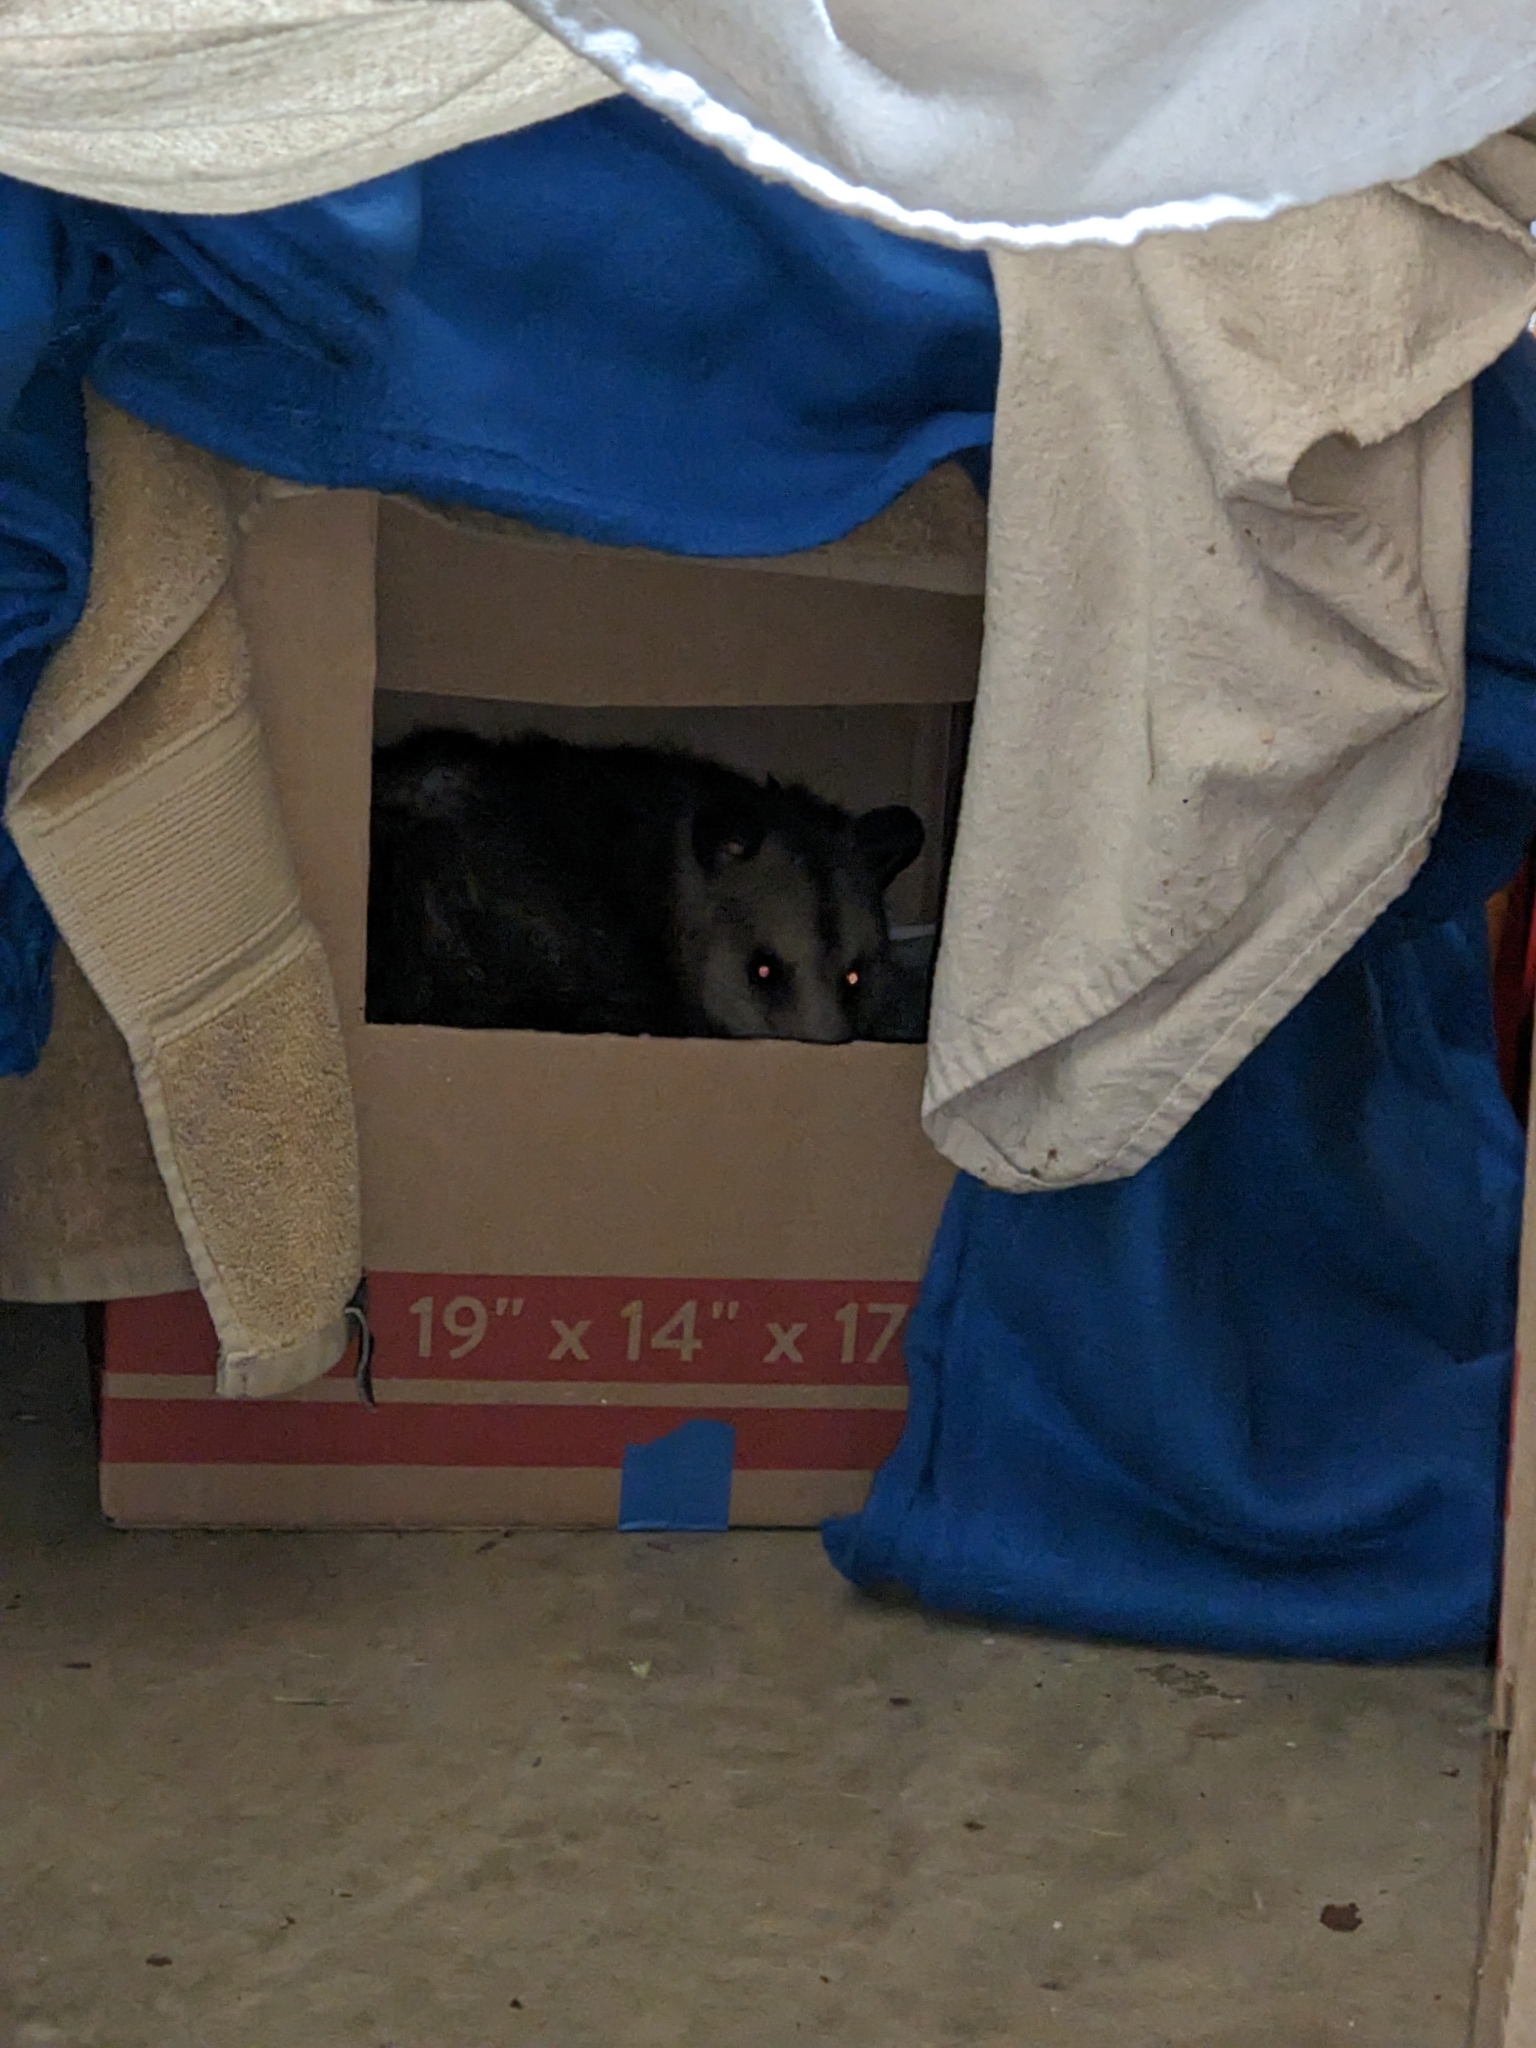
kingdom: Animalia
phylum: Chordata
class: Mammalia
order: Didelphimorphia
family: Didelphidae
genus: Didelphis
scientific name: Didelphis virginiana
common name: Virginia opossum
